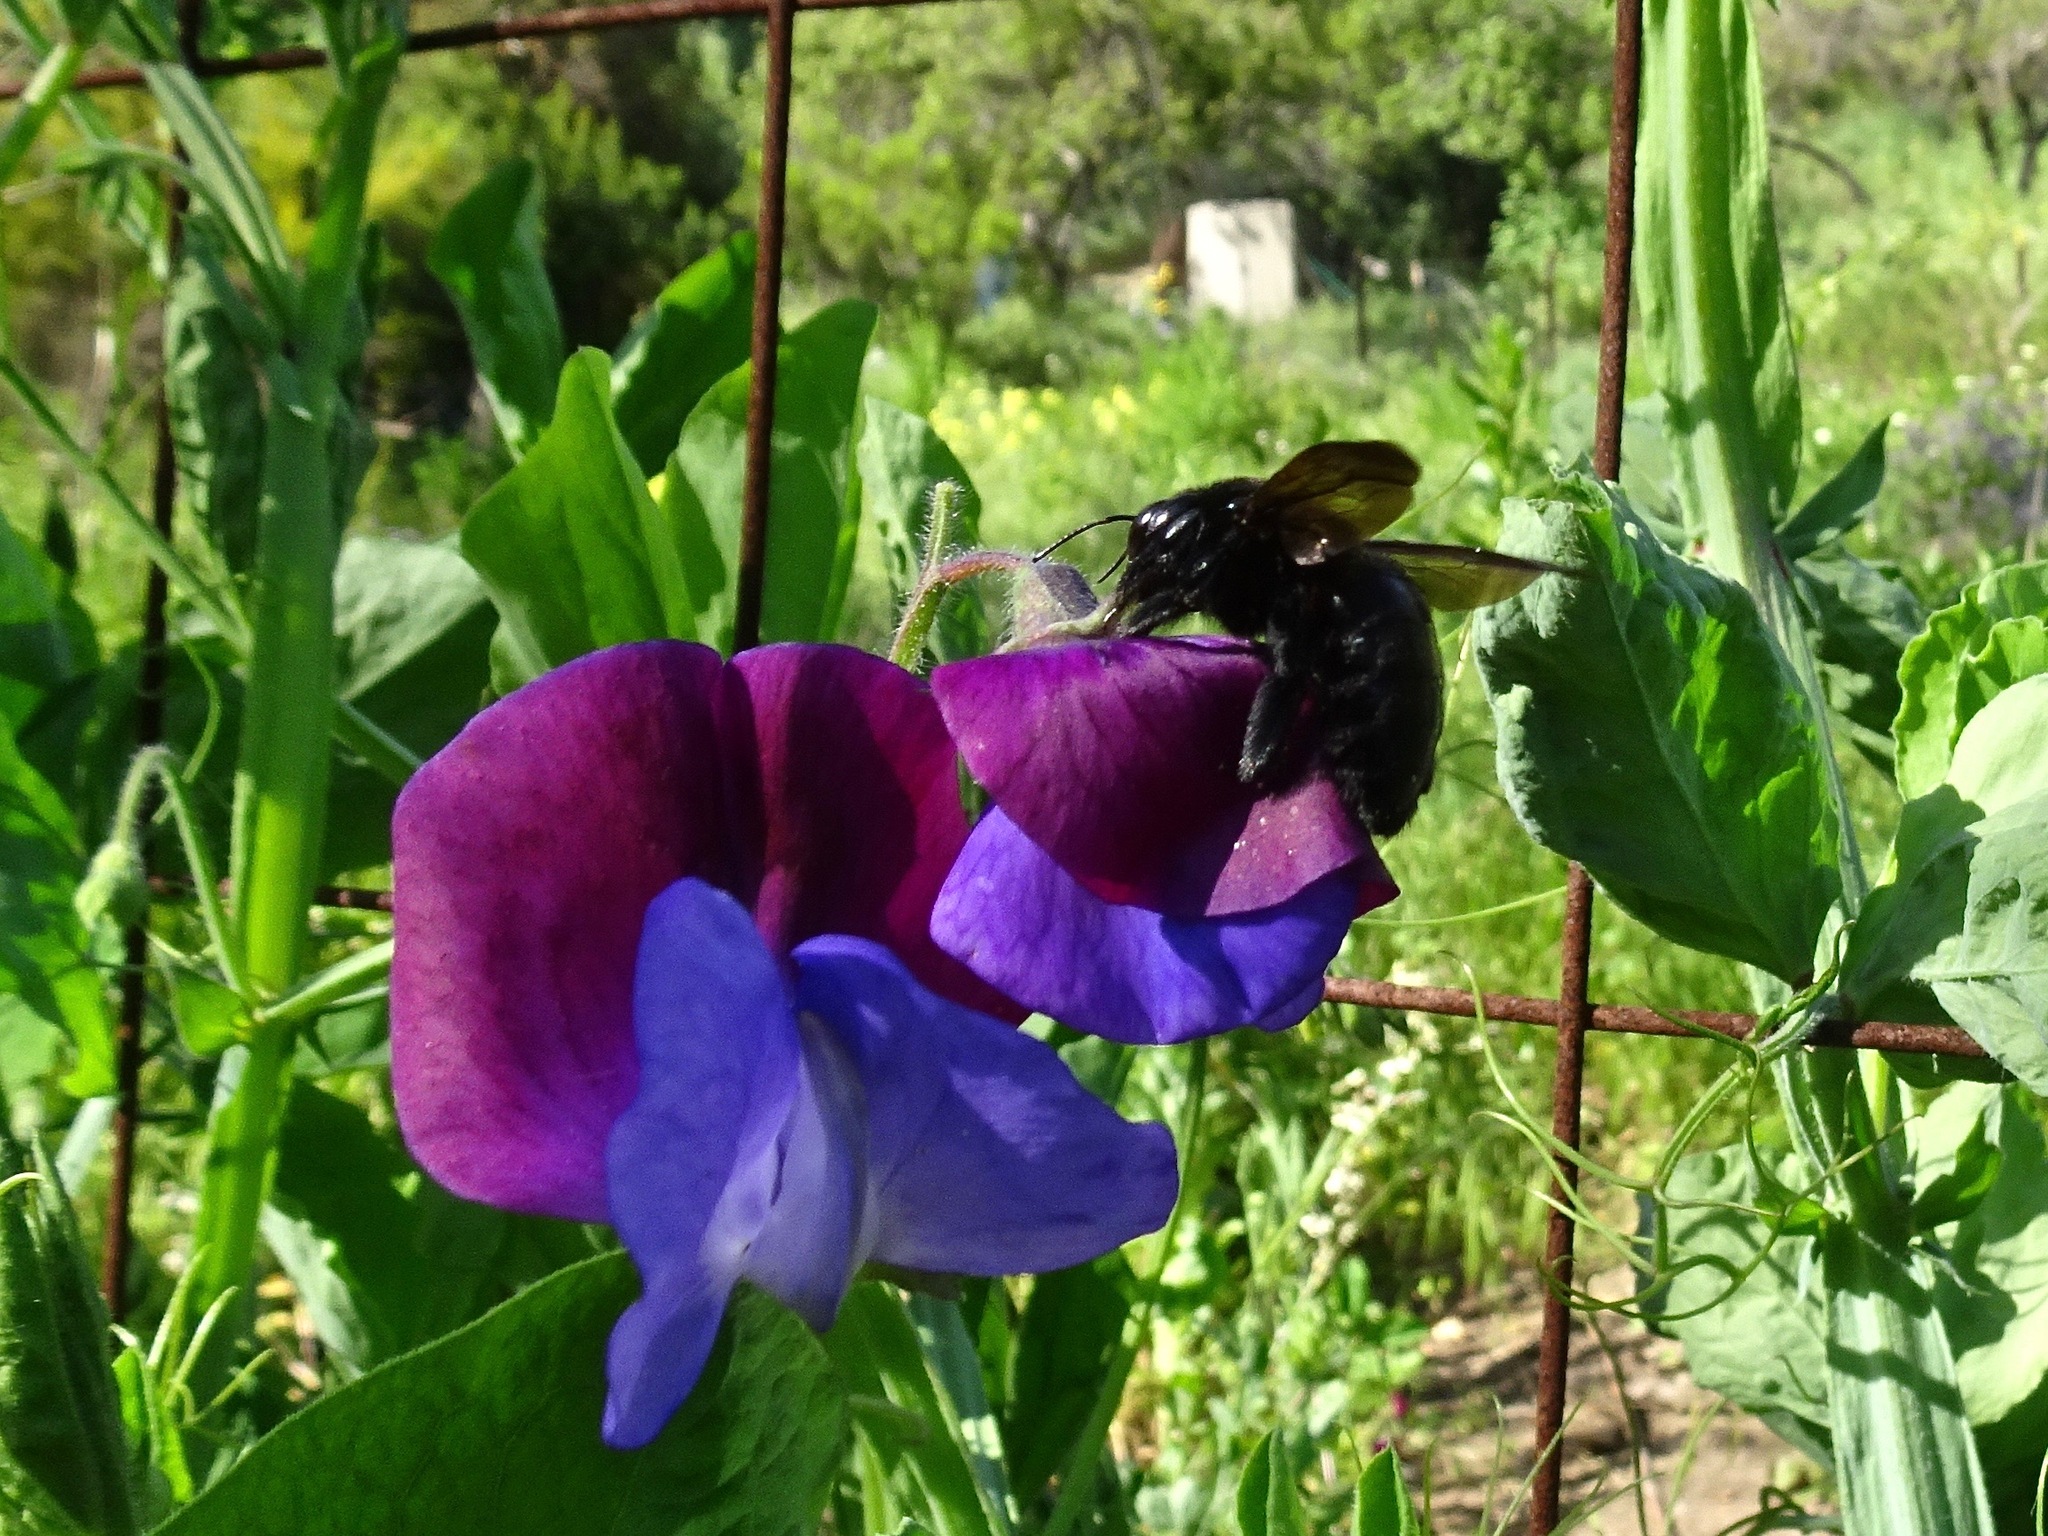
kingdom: Animalia
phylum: Arthropoda
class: Insecta
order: Hymenoptera
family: Apidae
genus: Xylocopa
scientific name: Xylocopa sonorina
